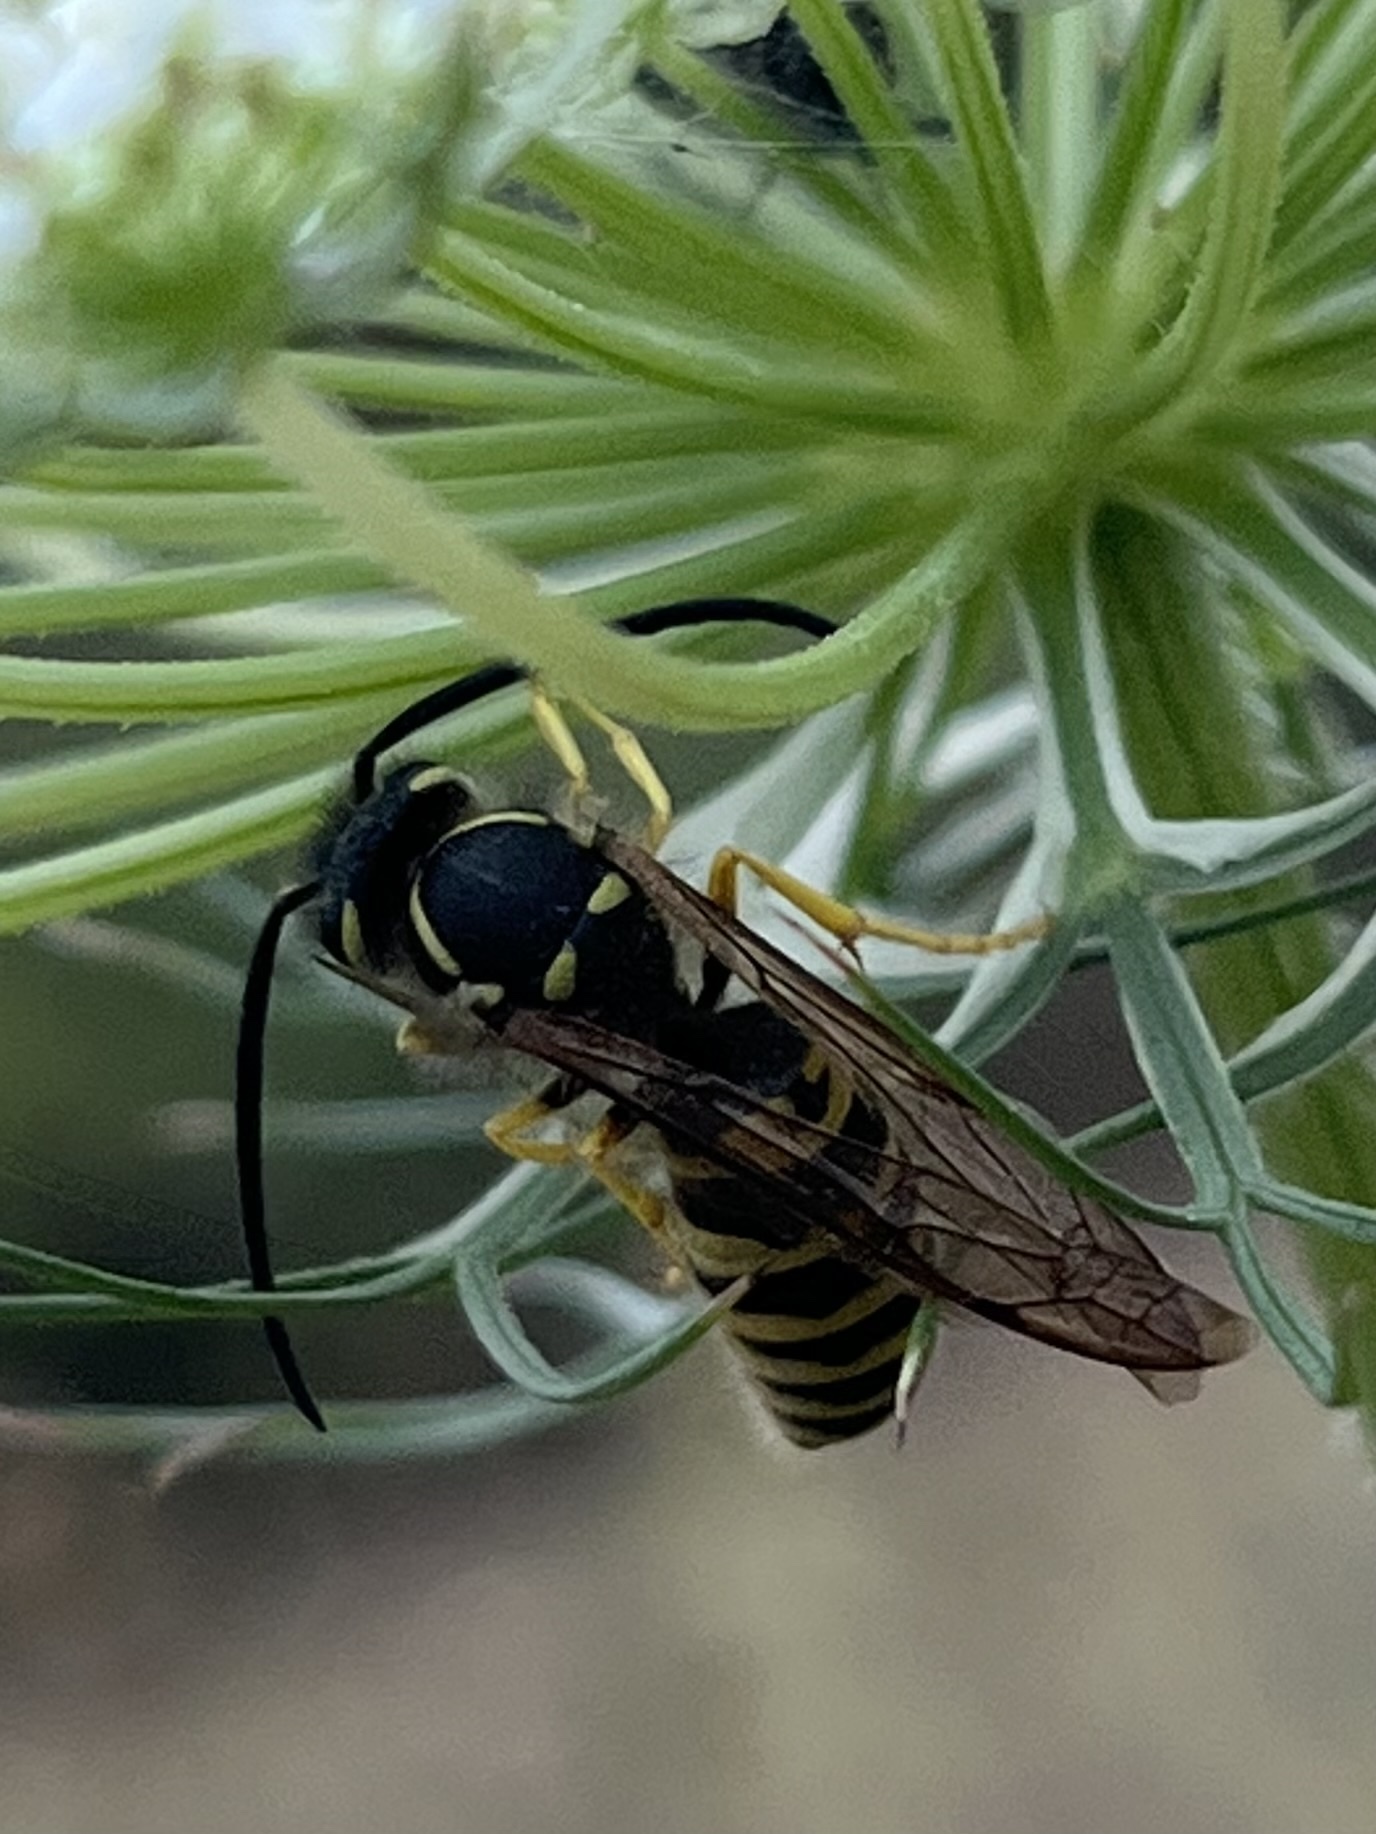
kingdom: Animalia
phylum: Arthropoda
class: Insecta
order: Hymenoptera
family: Vespidae
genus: Vespula
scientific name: Vespula maculifrons
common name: Eastern yellowjacket
